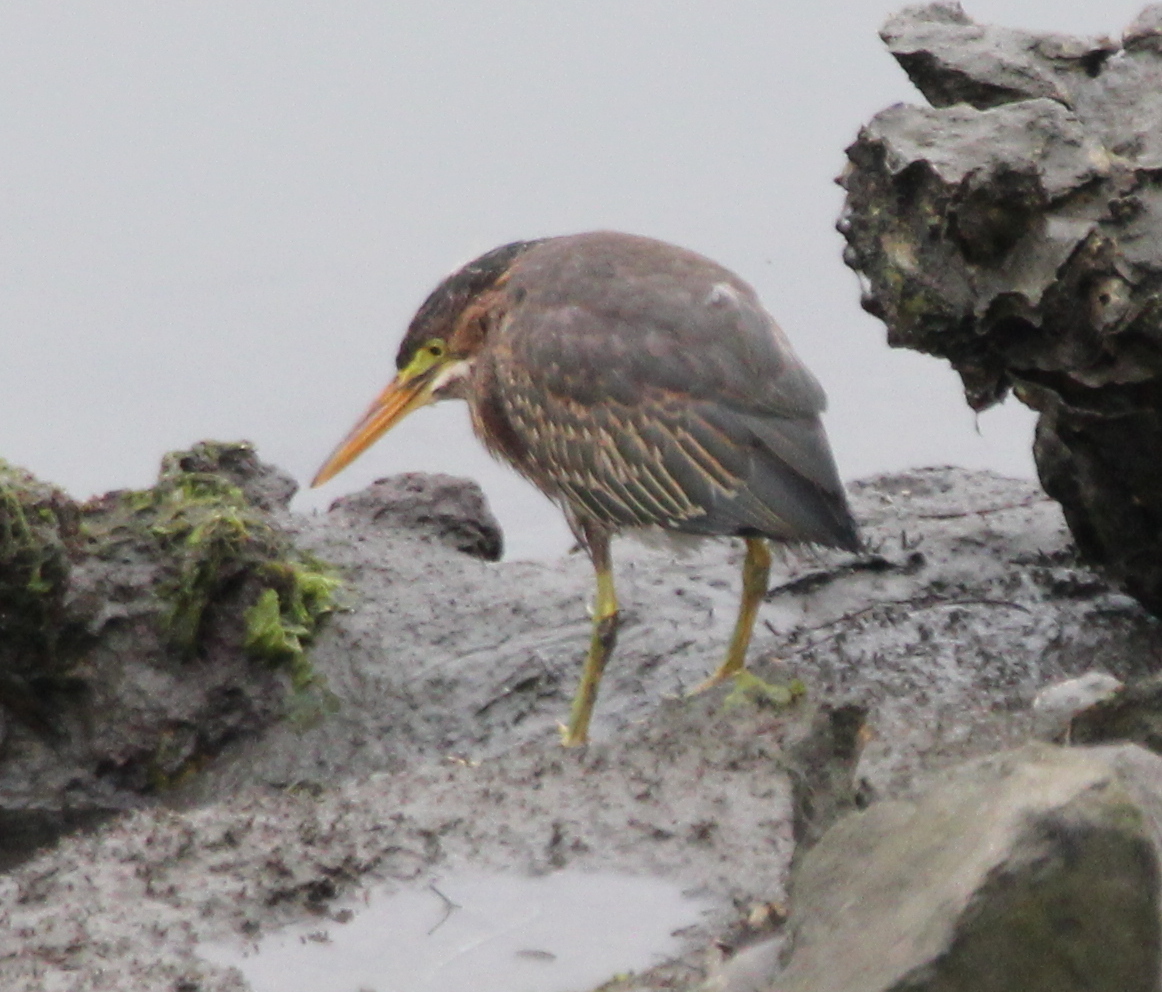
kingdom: Animalia
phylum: Chordata
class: Aves
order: Pelecaniformes
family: Ardeidae
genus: Butorides
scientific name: Butorides virescens
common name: Green heron
